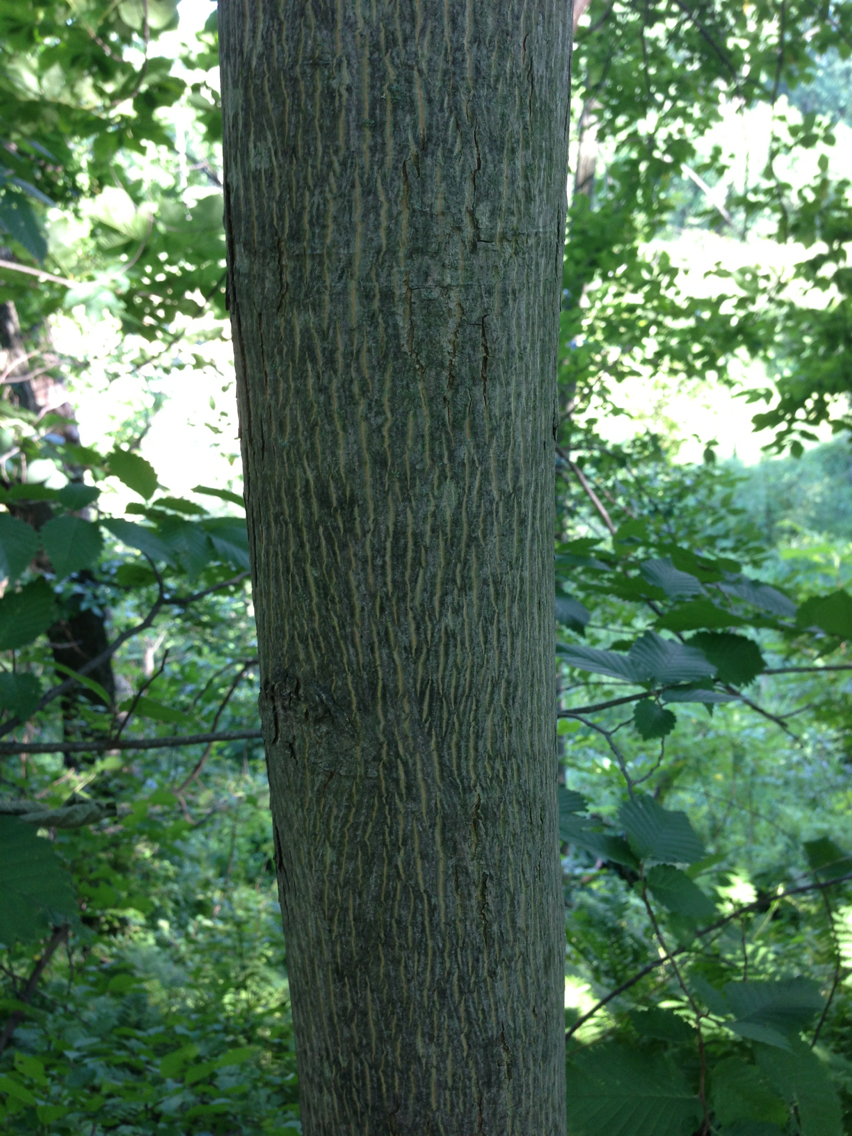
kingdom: Plantae
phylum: Tracheophyta
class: Magnoliopsida
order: Fagales
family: Juglandaceae
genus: Carya
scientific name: Carya cordiformis
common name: Bitternut hickory
